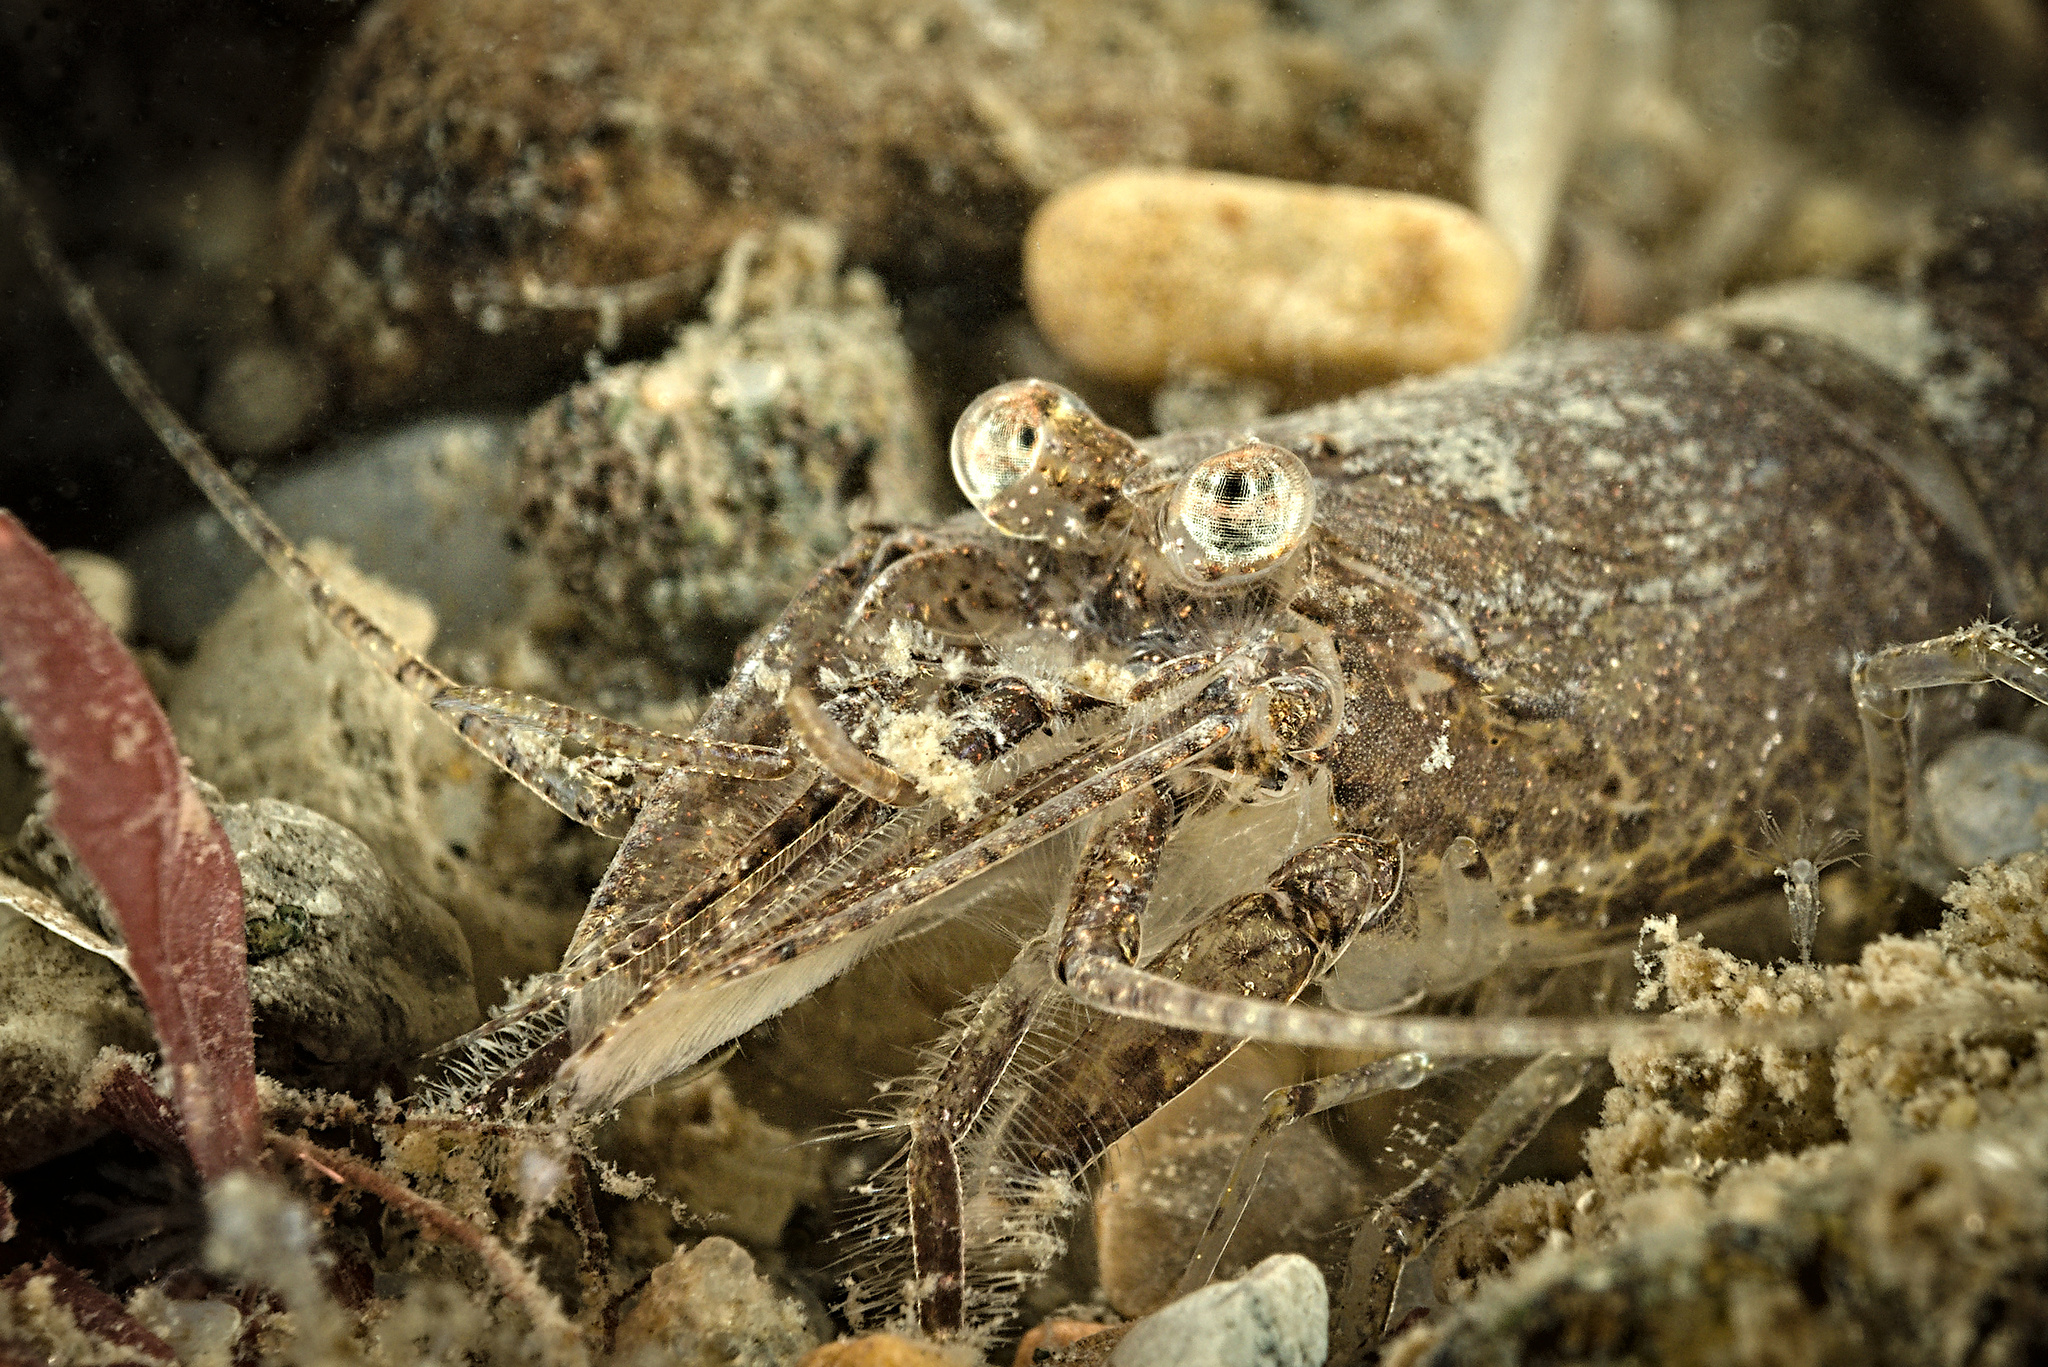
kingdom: Animalia
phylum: Arthropoda
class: Malacostraca
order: Decapoda
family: Crangonidae
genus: Crangon
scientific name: Crangon crangon
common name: Brown shrimp
